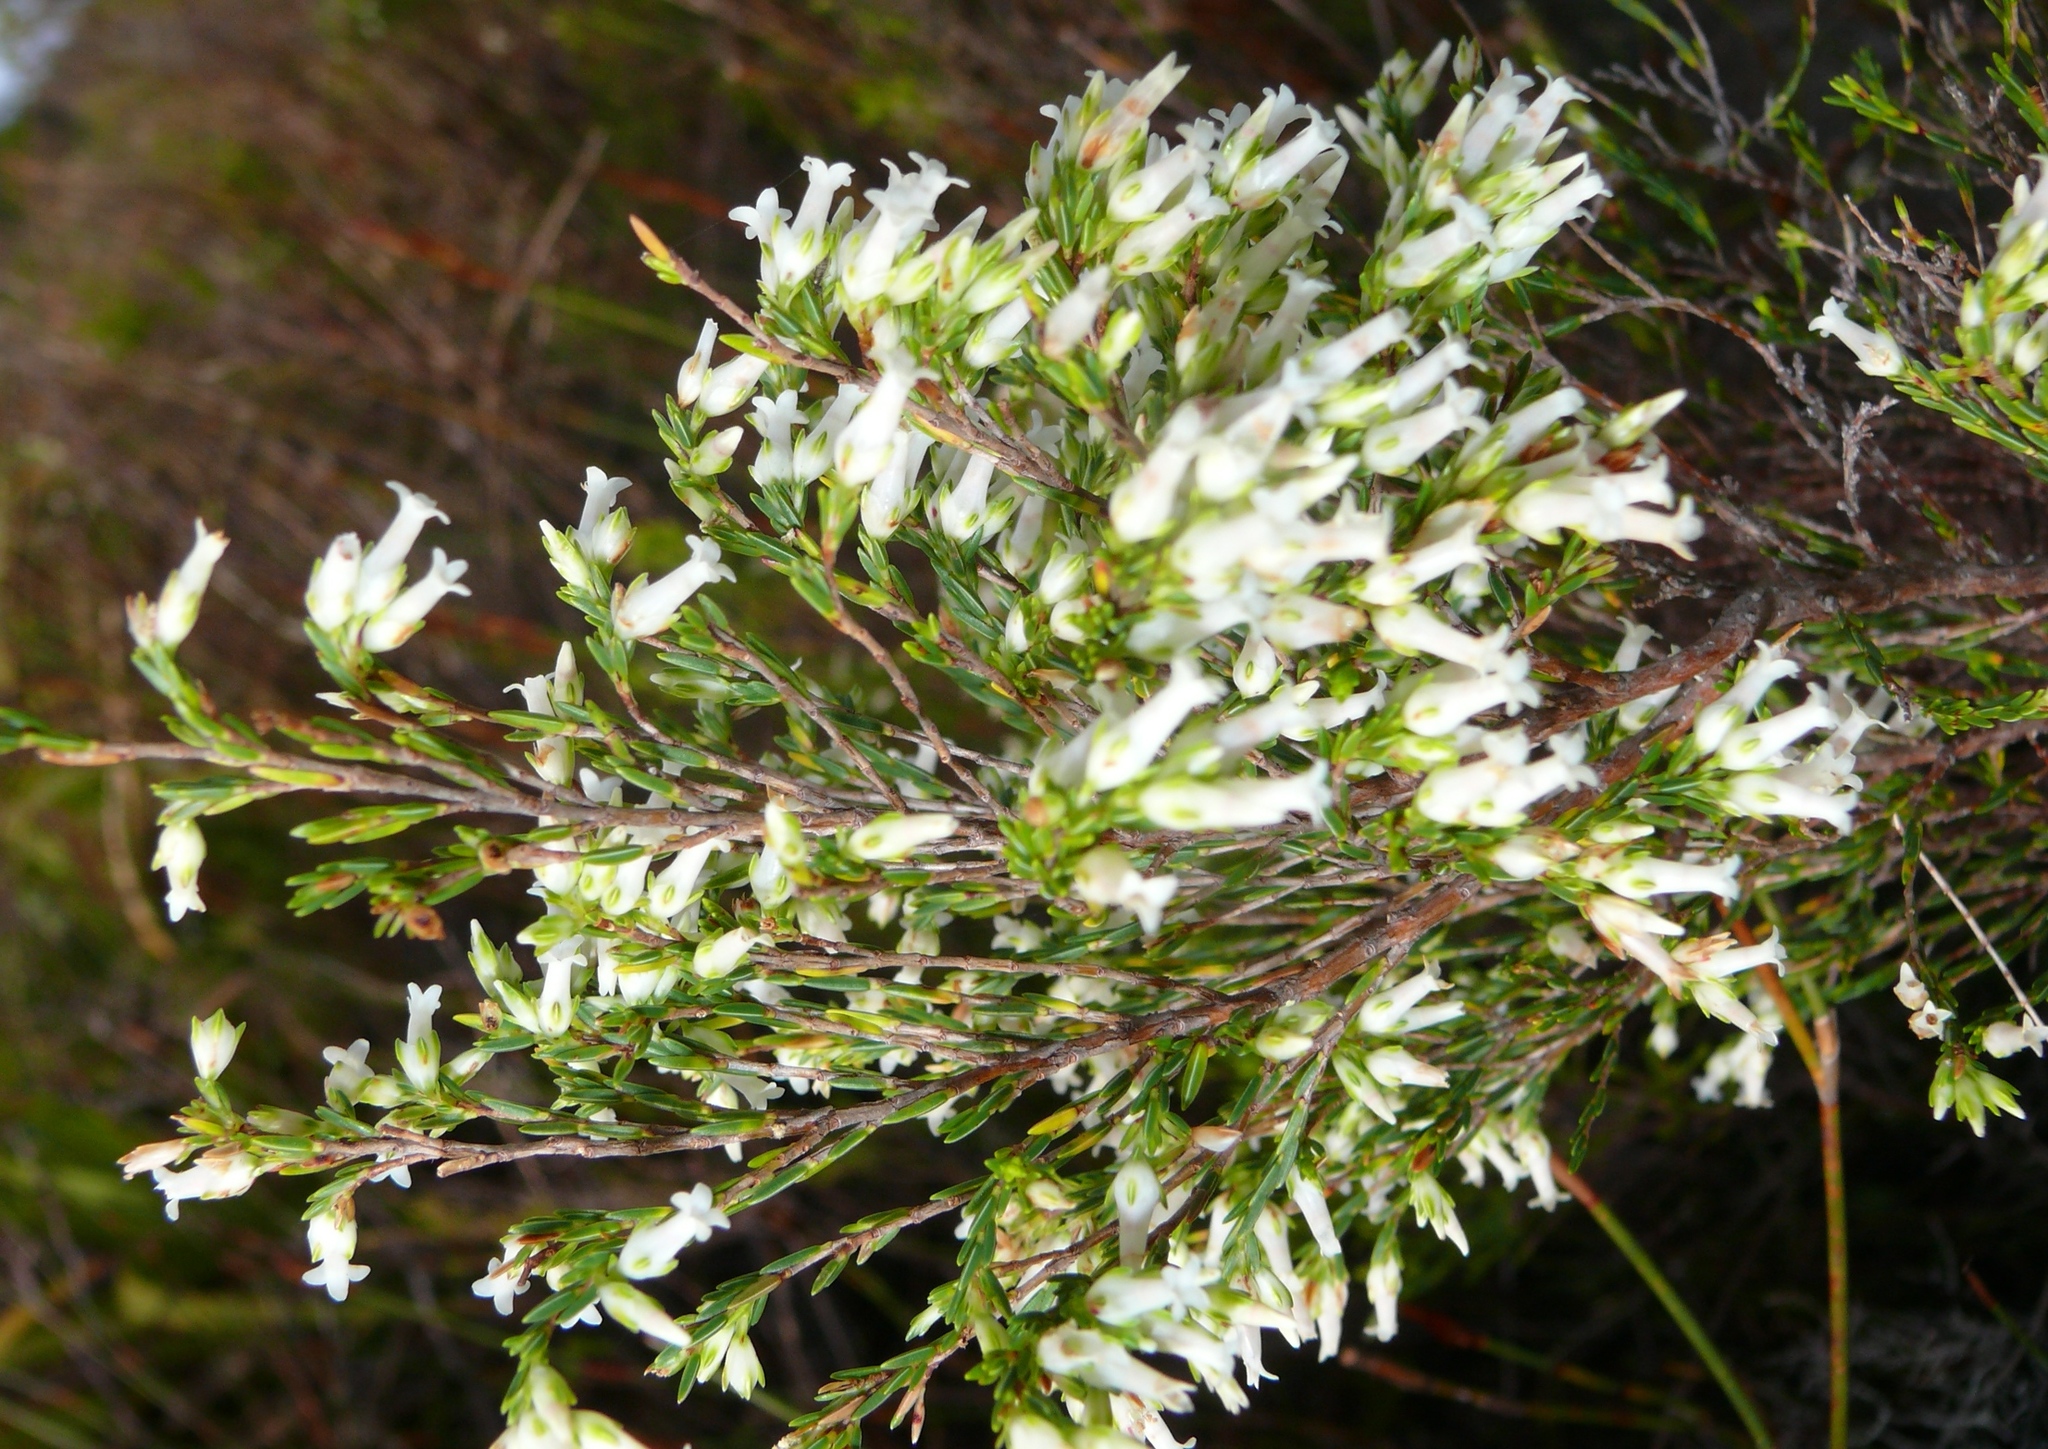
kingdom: Plantae
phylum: Tracheophyta
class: Magnoliopsida
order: Ericales
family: Ericaceae
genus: Erica
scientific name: Erica lutea
